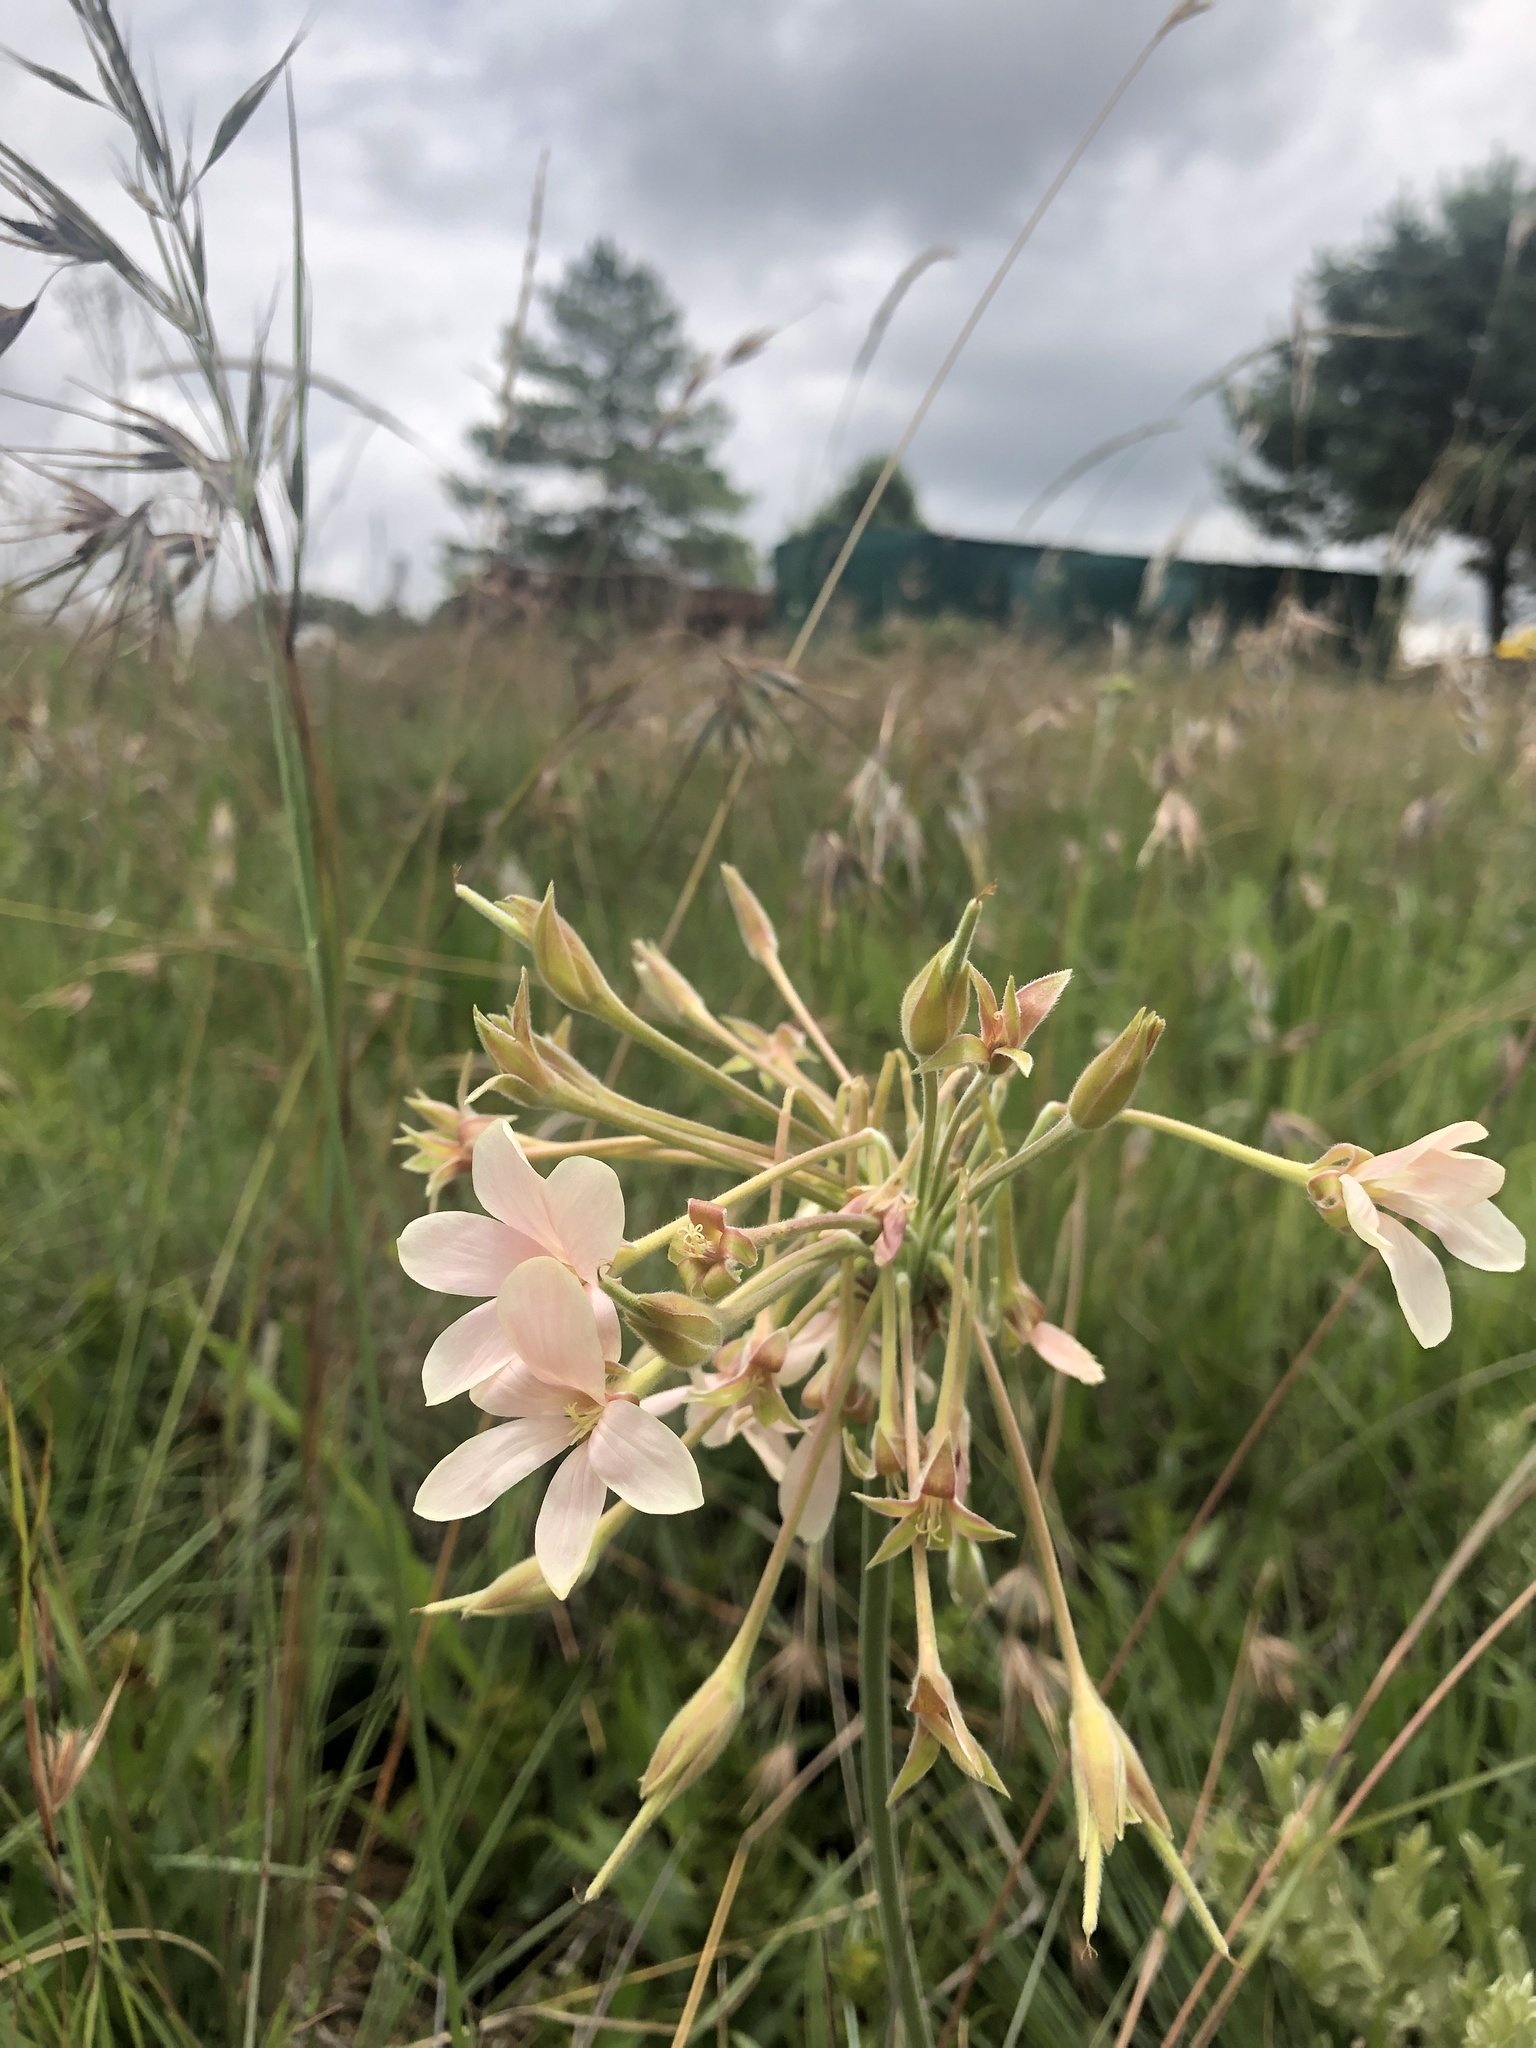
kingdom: Plantae
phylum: Tracheophyta
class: Magnoliopsida
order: Geraniales
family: Geraniaceae
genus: Pelargonium
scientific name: Pelargonium luridum
